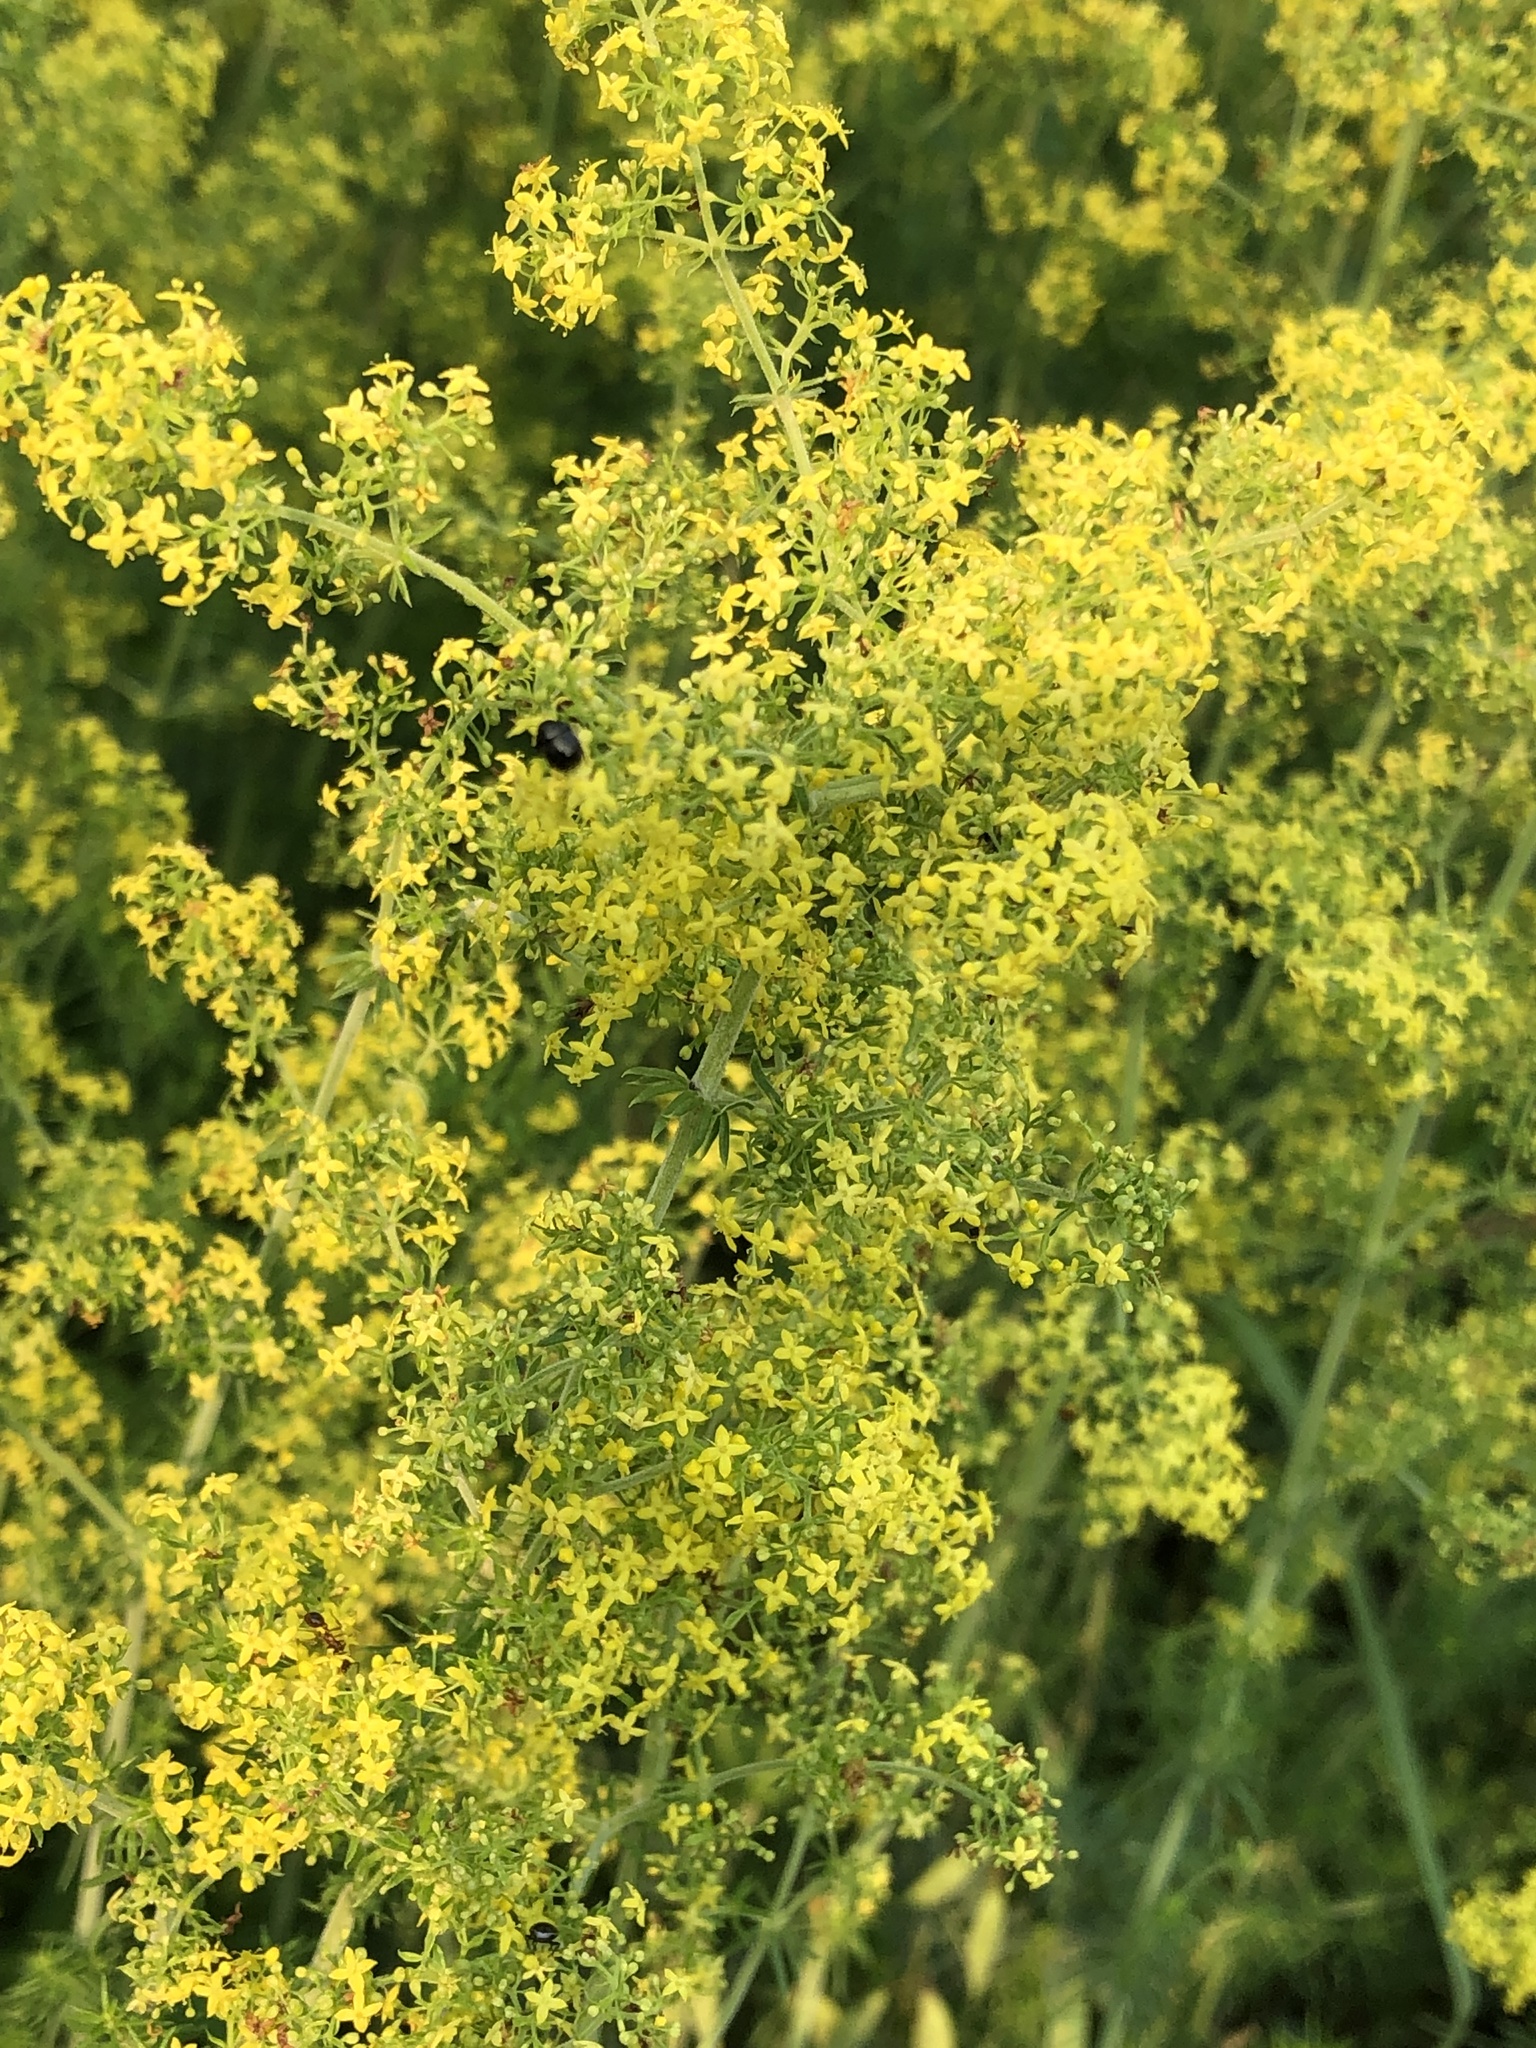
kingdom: Plantae
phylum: Tracheophyta
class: Magnoliopsida
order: Gentianales
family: Rubiaceae
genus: Galium
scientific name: Galium verum
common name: Lady's bedstraw
